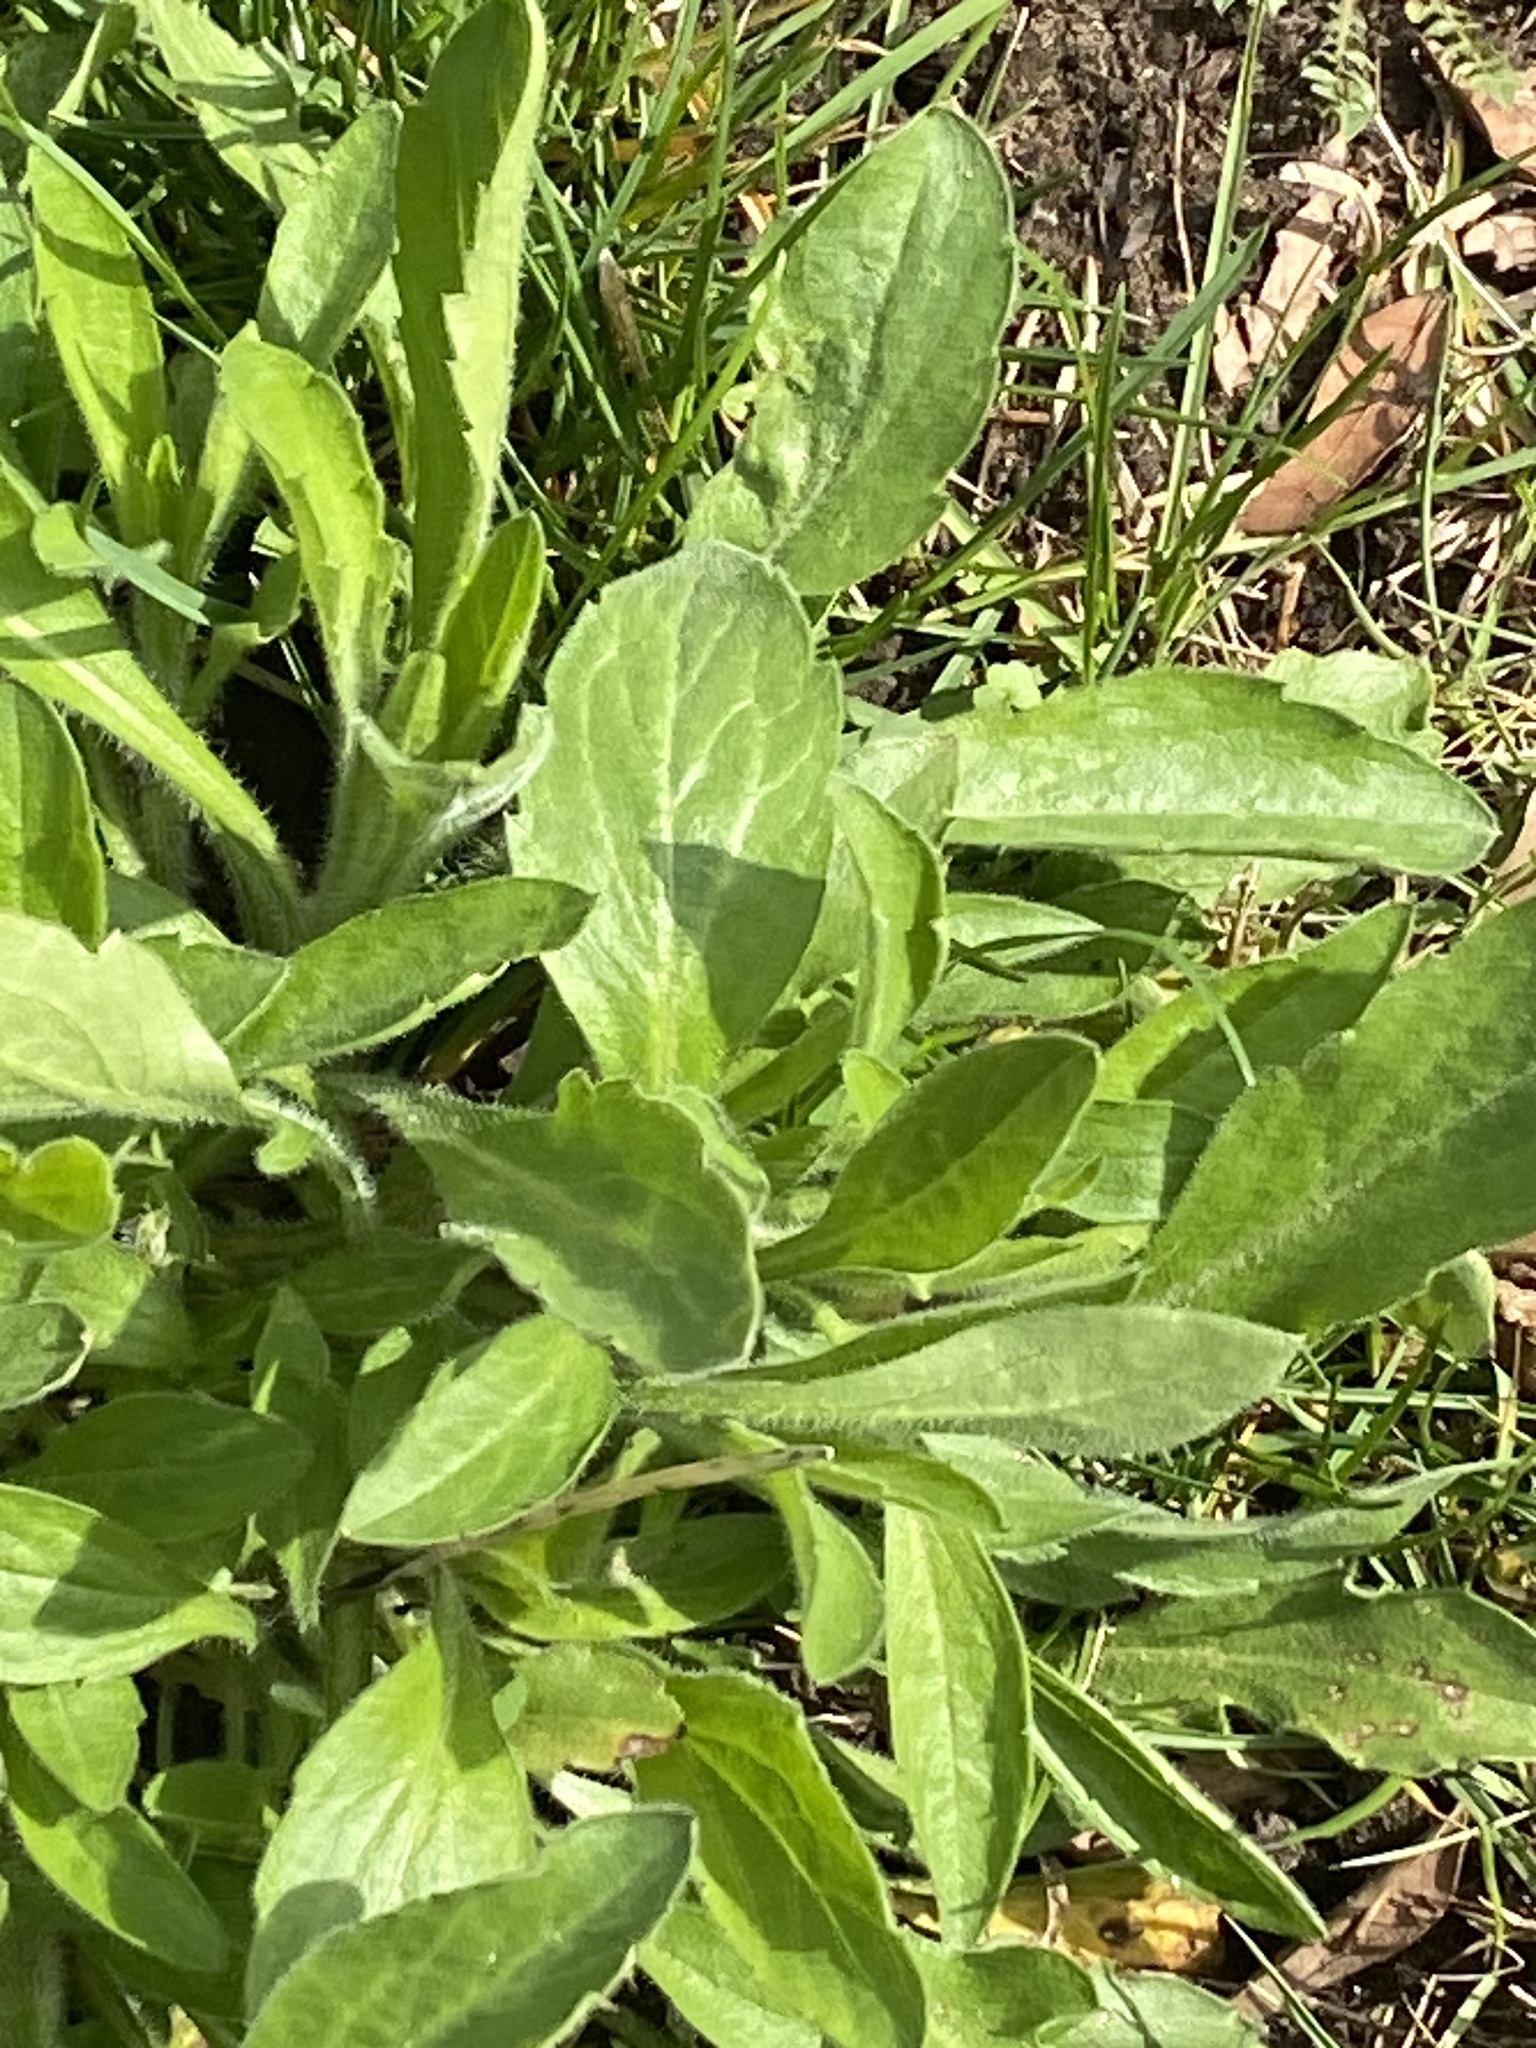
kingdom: Plantae
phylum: Tracheophyta
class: Magnoliopsida
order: Asterales
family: Asteraceae
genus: Erigeron
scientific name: Erigeron annuus
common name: Tall fleabane
